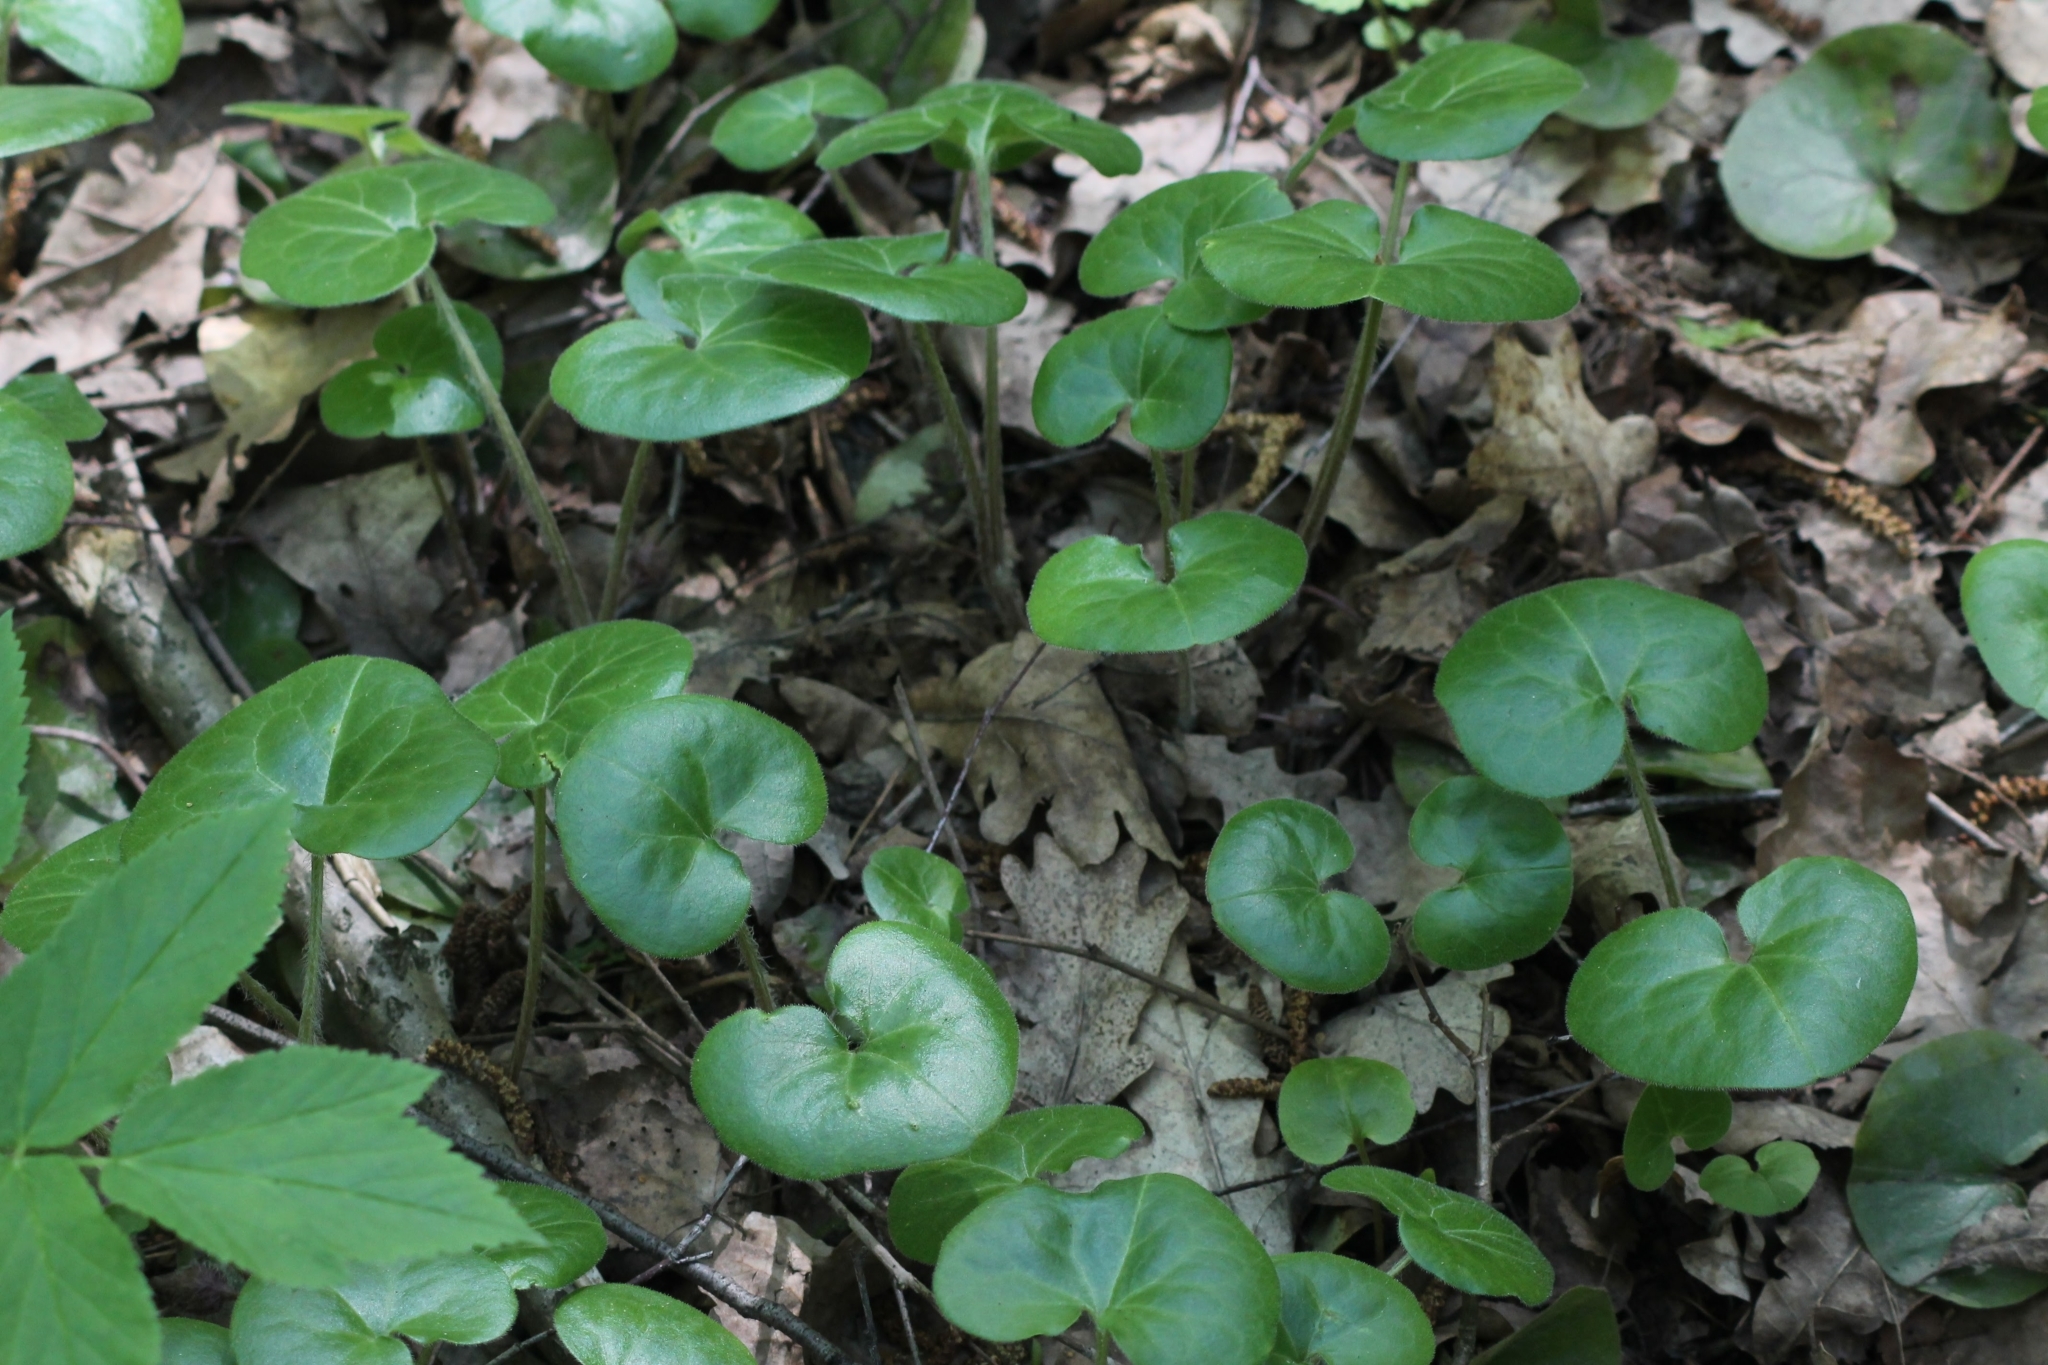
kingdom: Plantae
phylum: Tracheophyta
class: Magnoliopsida
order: Piperales
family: Aristolochiaceae
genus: Asarum
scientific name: Asarum europaeum
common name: Asarabacca
